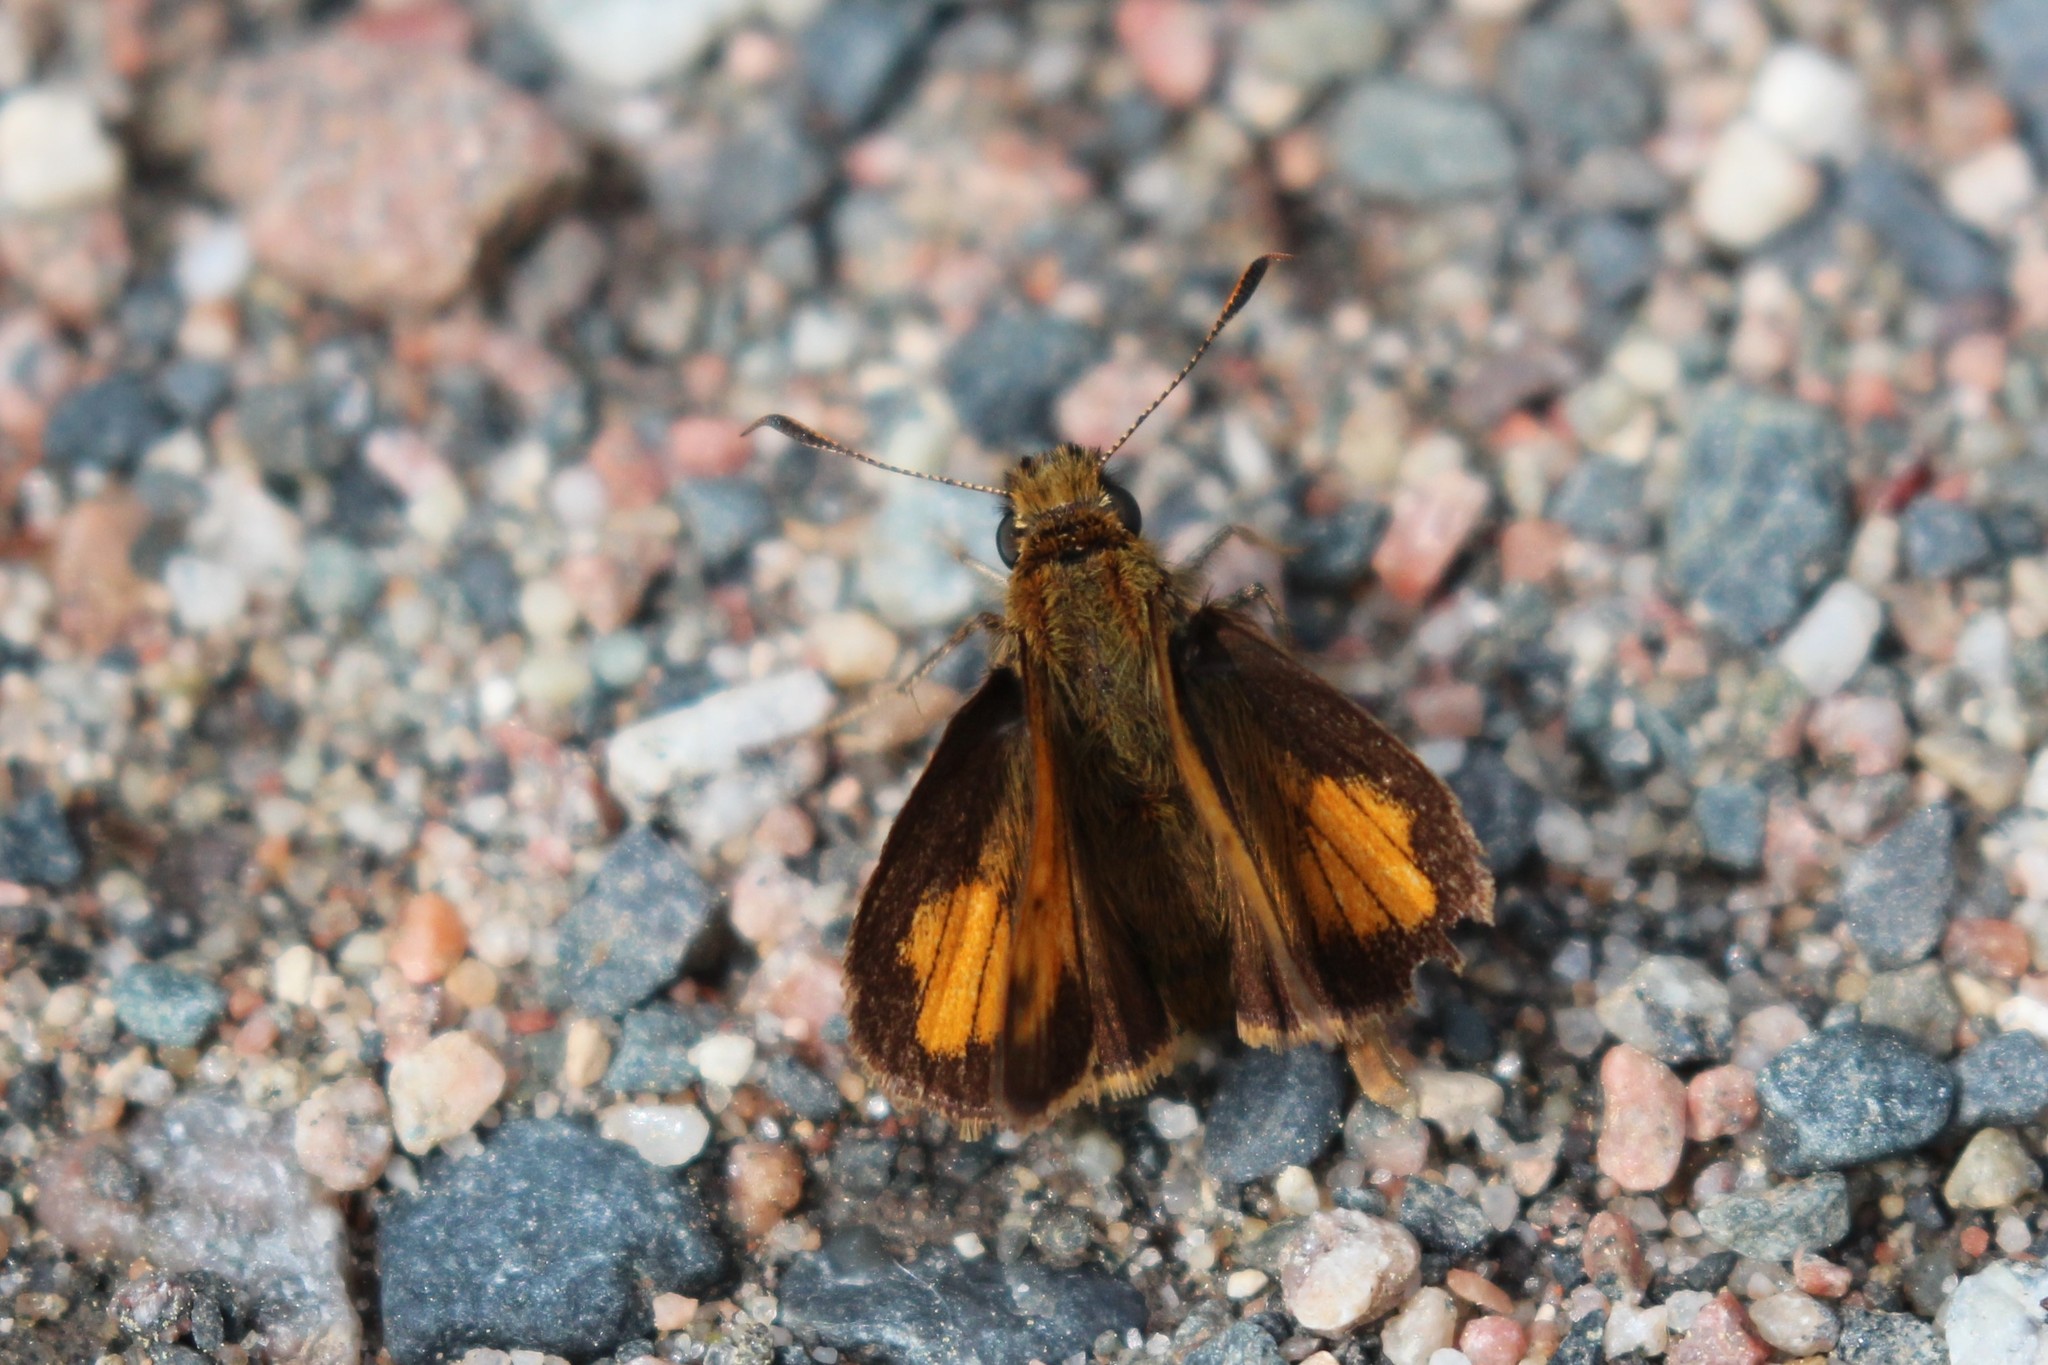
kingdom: Animalia
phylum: Arthropoda
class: Insecta
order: Lepidoptera
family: Hesperiidae
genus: Lon
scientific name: Lon hobomok
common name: Hobomok skipper
